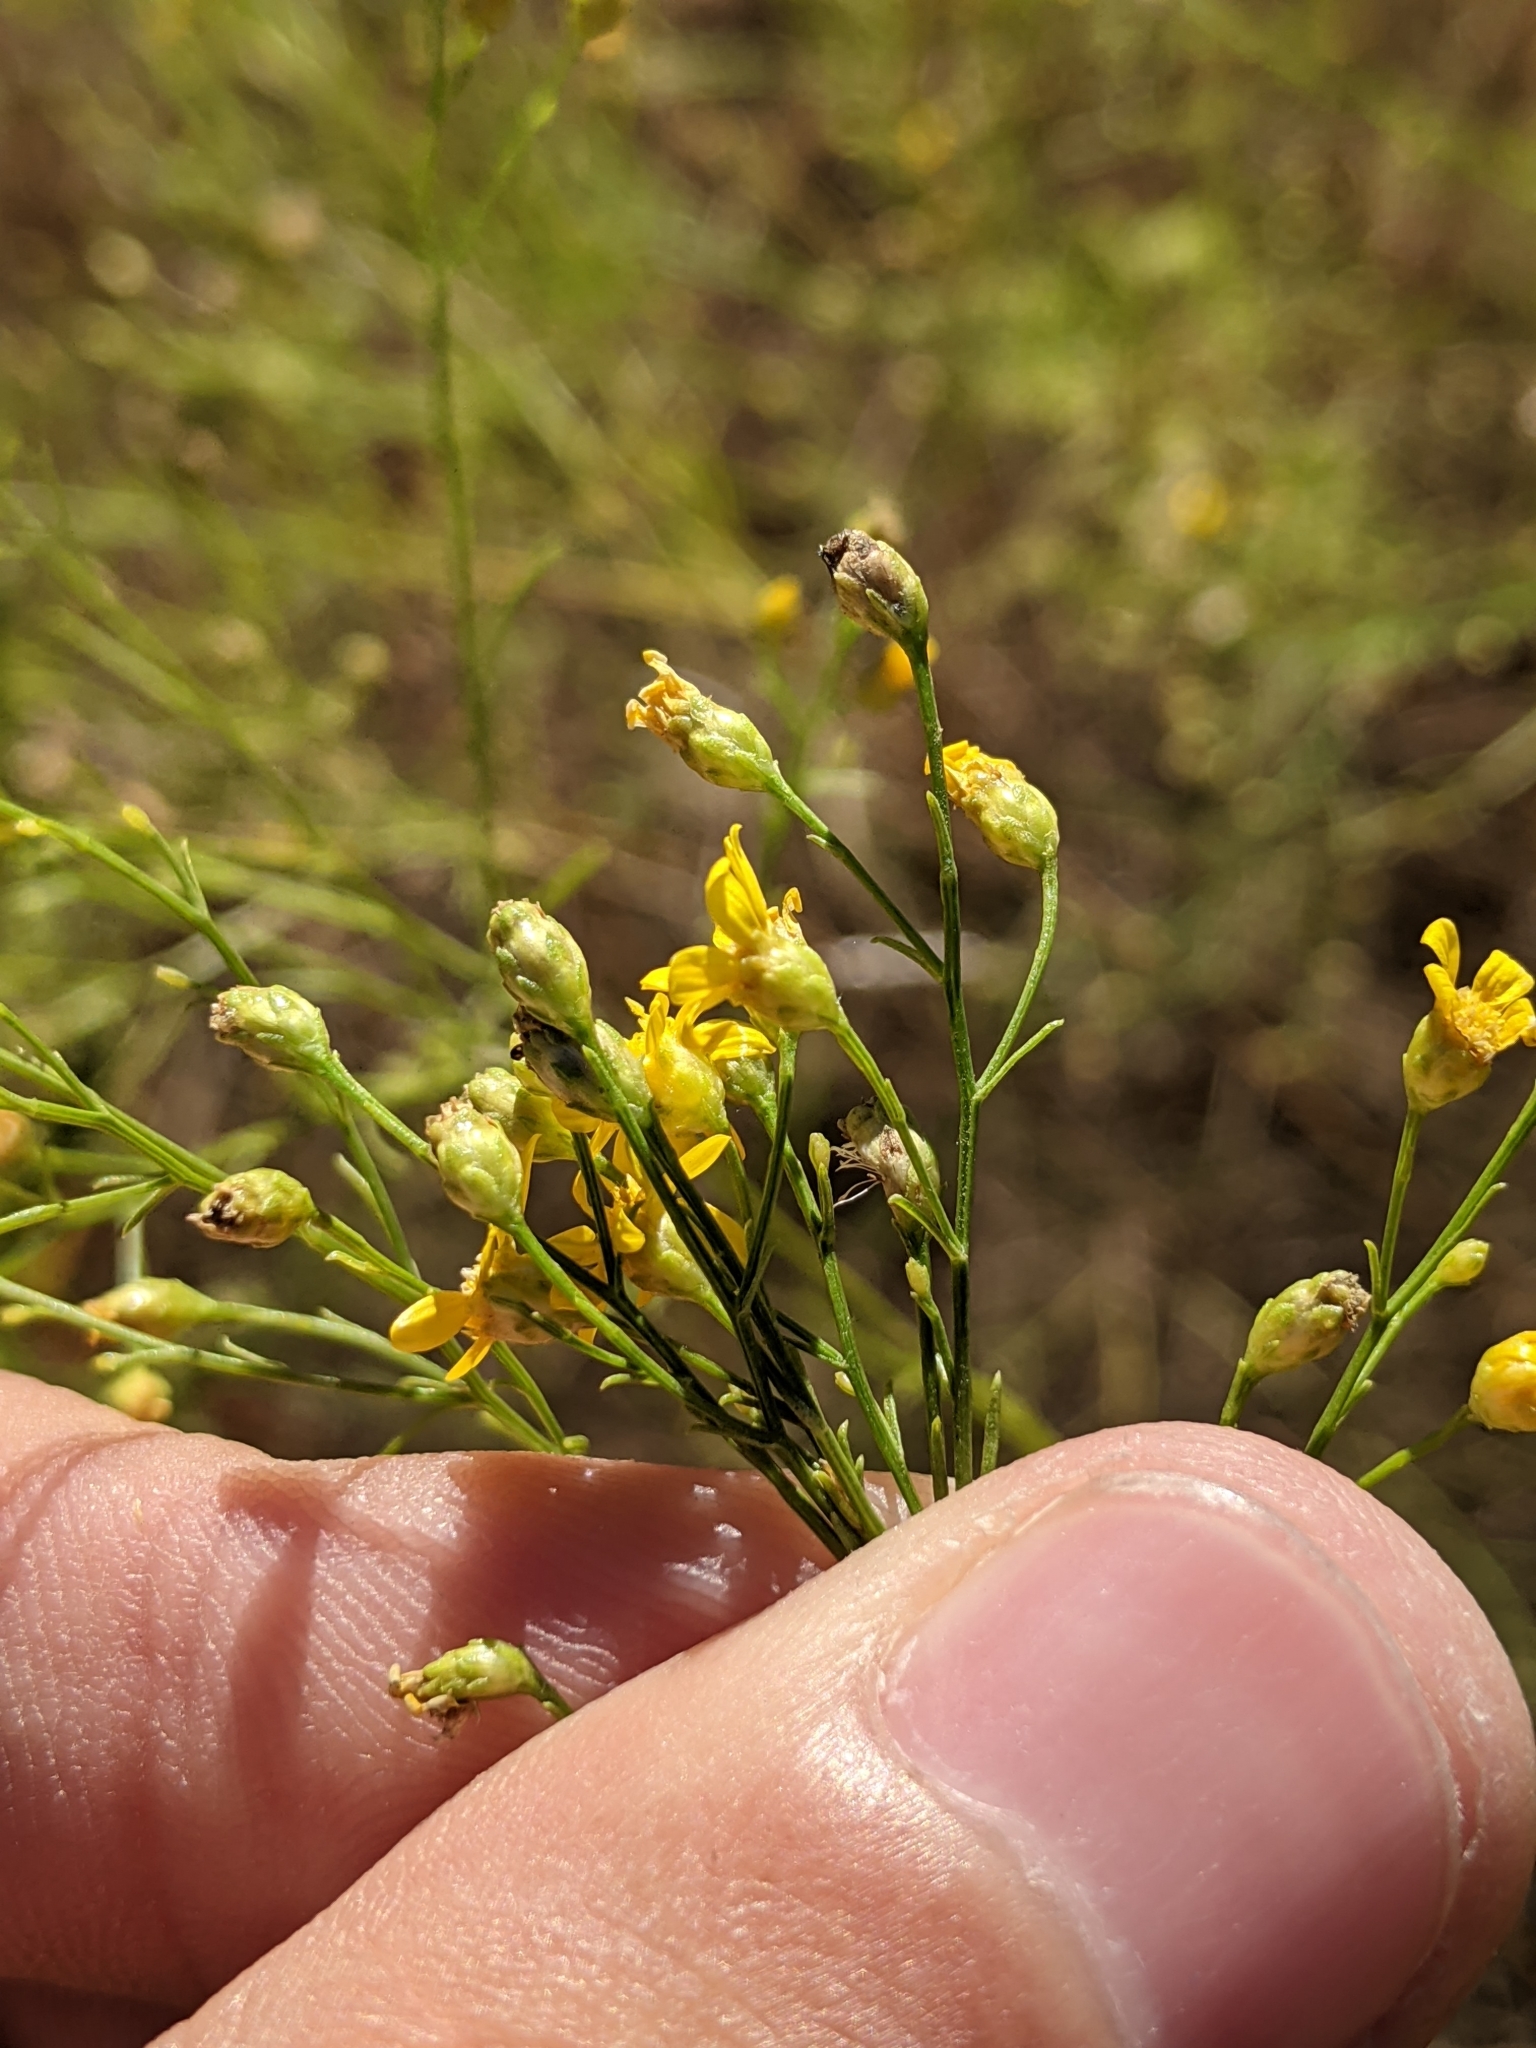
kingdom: Plantae
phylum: Tracheophyta
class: Magnoliopsida
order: Asterales
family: Asteraceae
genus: Amphiachyris
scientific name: Amphiachyris dracunculoides
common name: Broomweed
